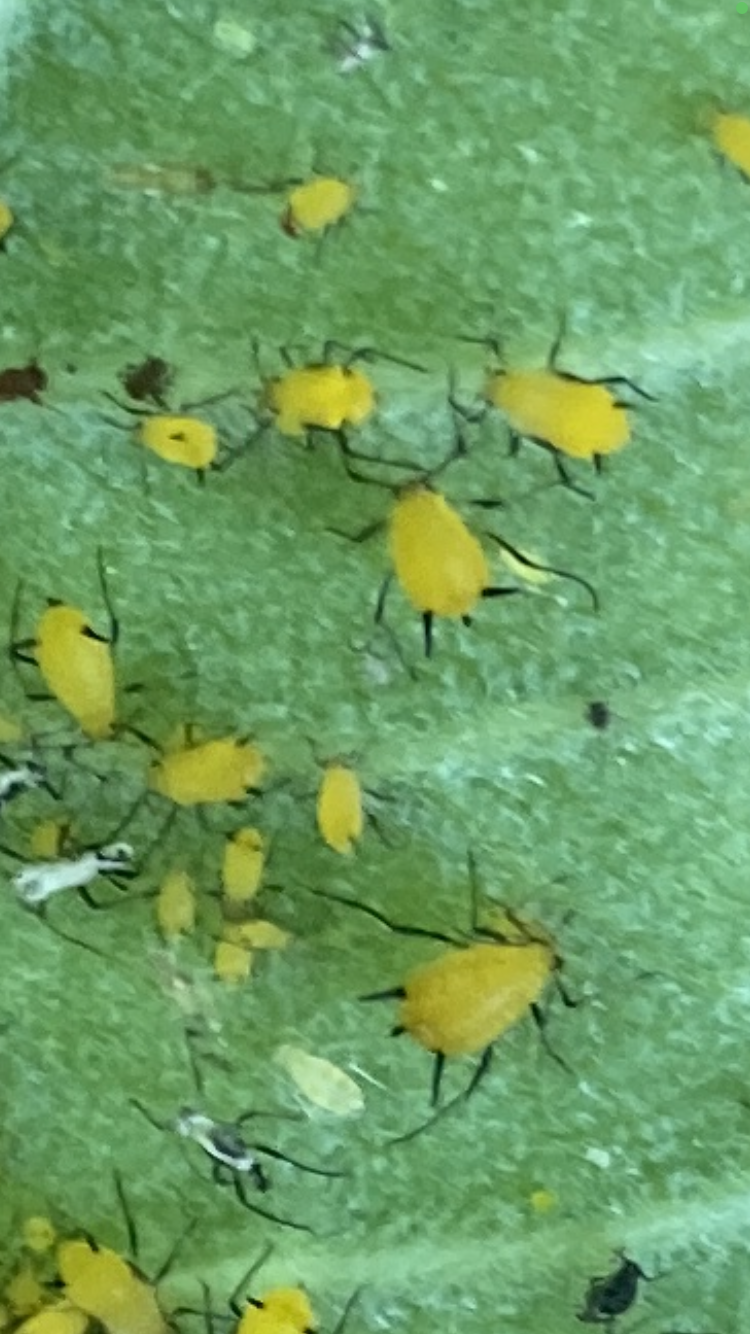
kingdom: Animalia
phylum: Arthropoda
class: Insecta
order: Hemiptera
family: Aphididae
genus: Aphis
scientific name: Aphis nerii
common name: Oleander aphid
